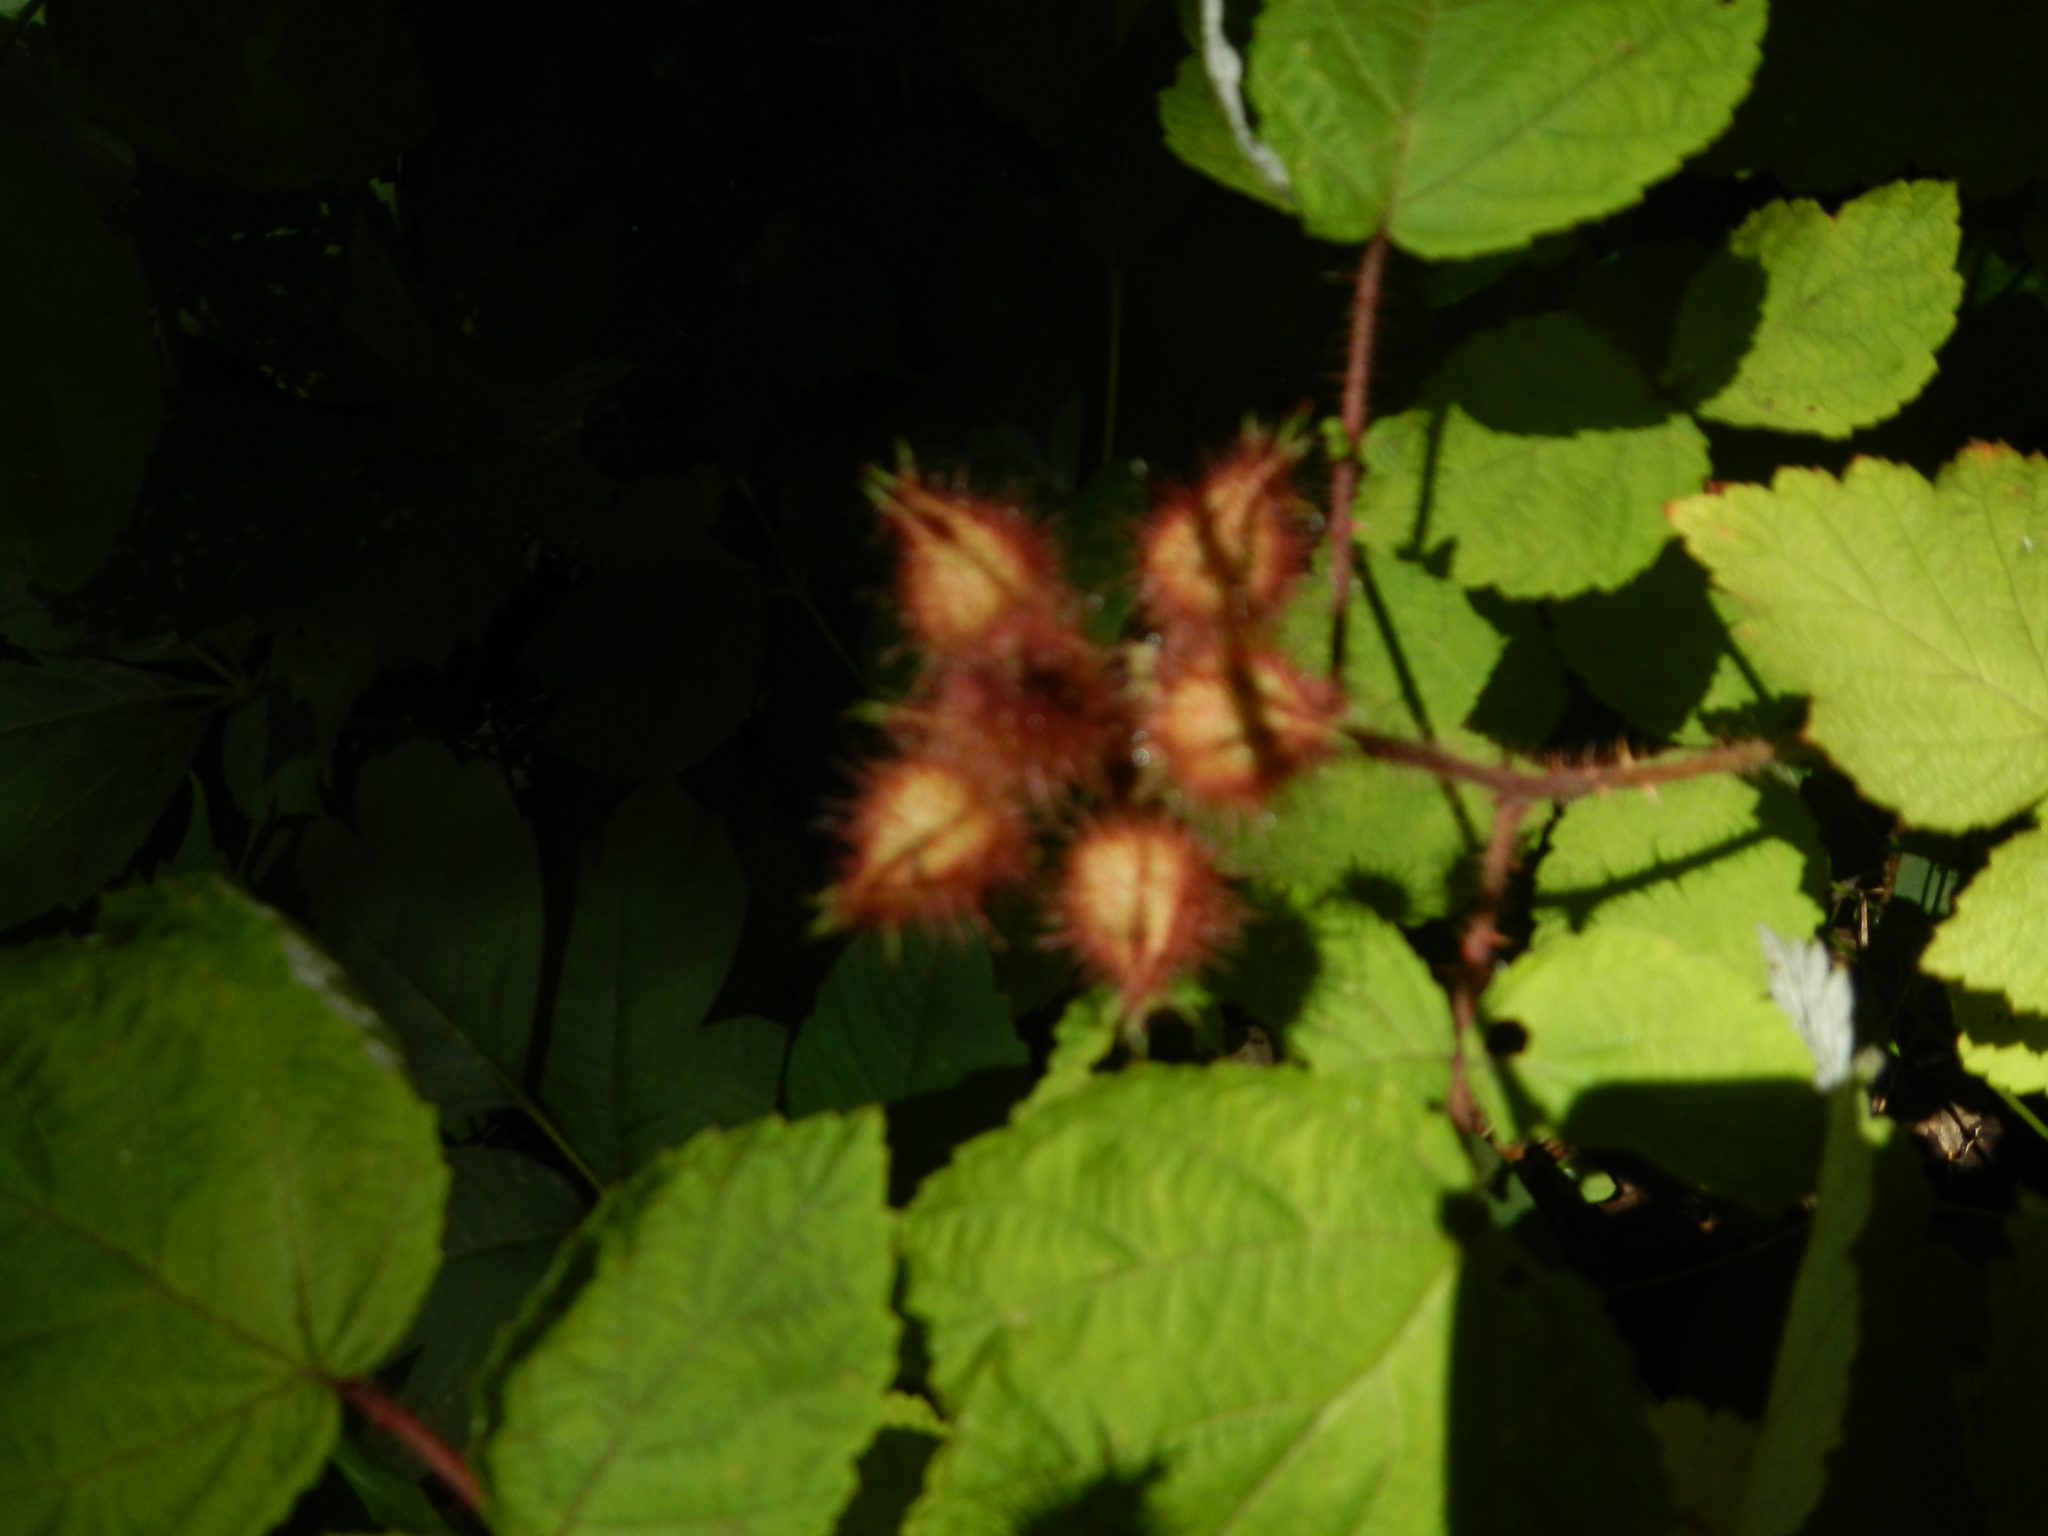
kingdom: Plantae
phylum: Tracheophyta
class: Magnoliopsida
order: Rosales
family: Rosaceae
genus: Rubus
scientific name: Rubus phoenicolasius
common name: Japanese wineberry
